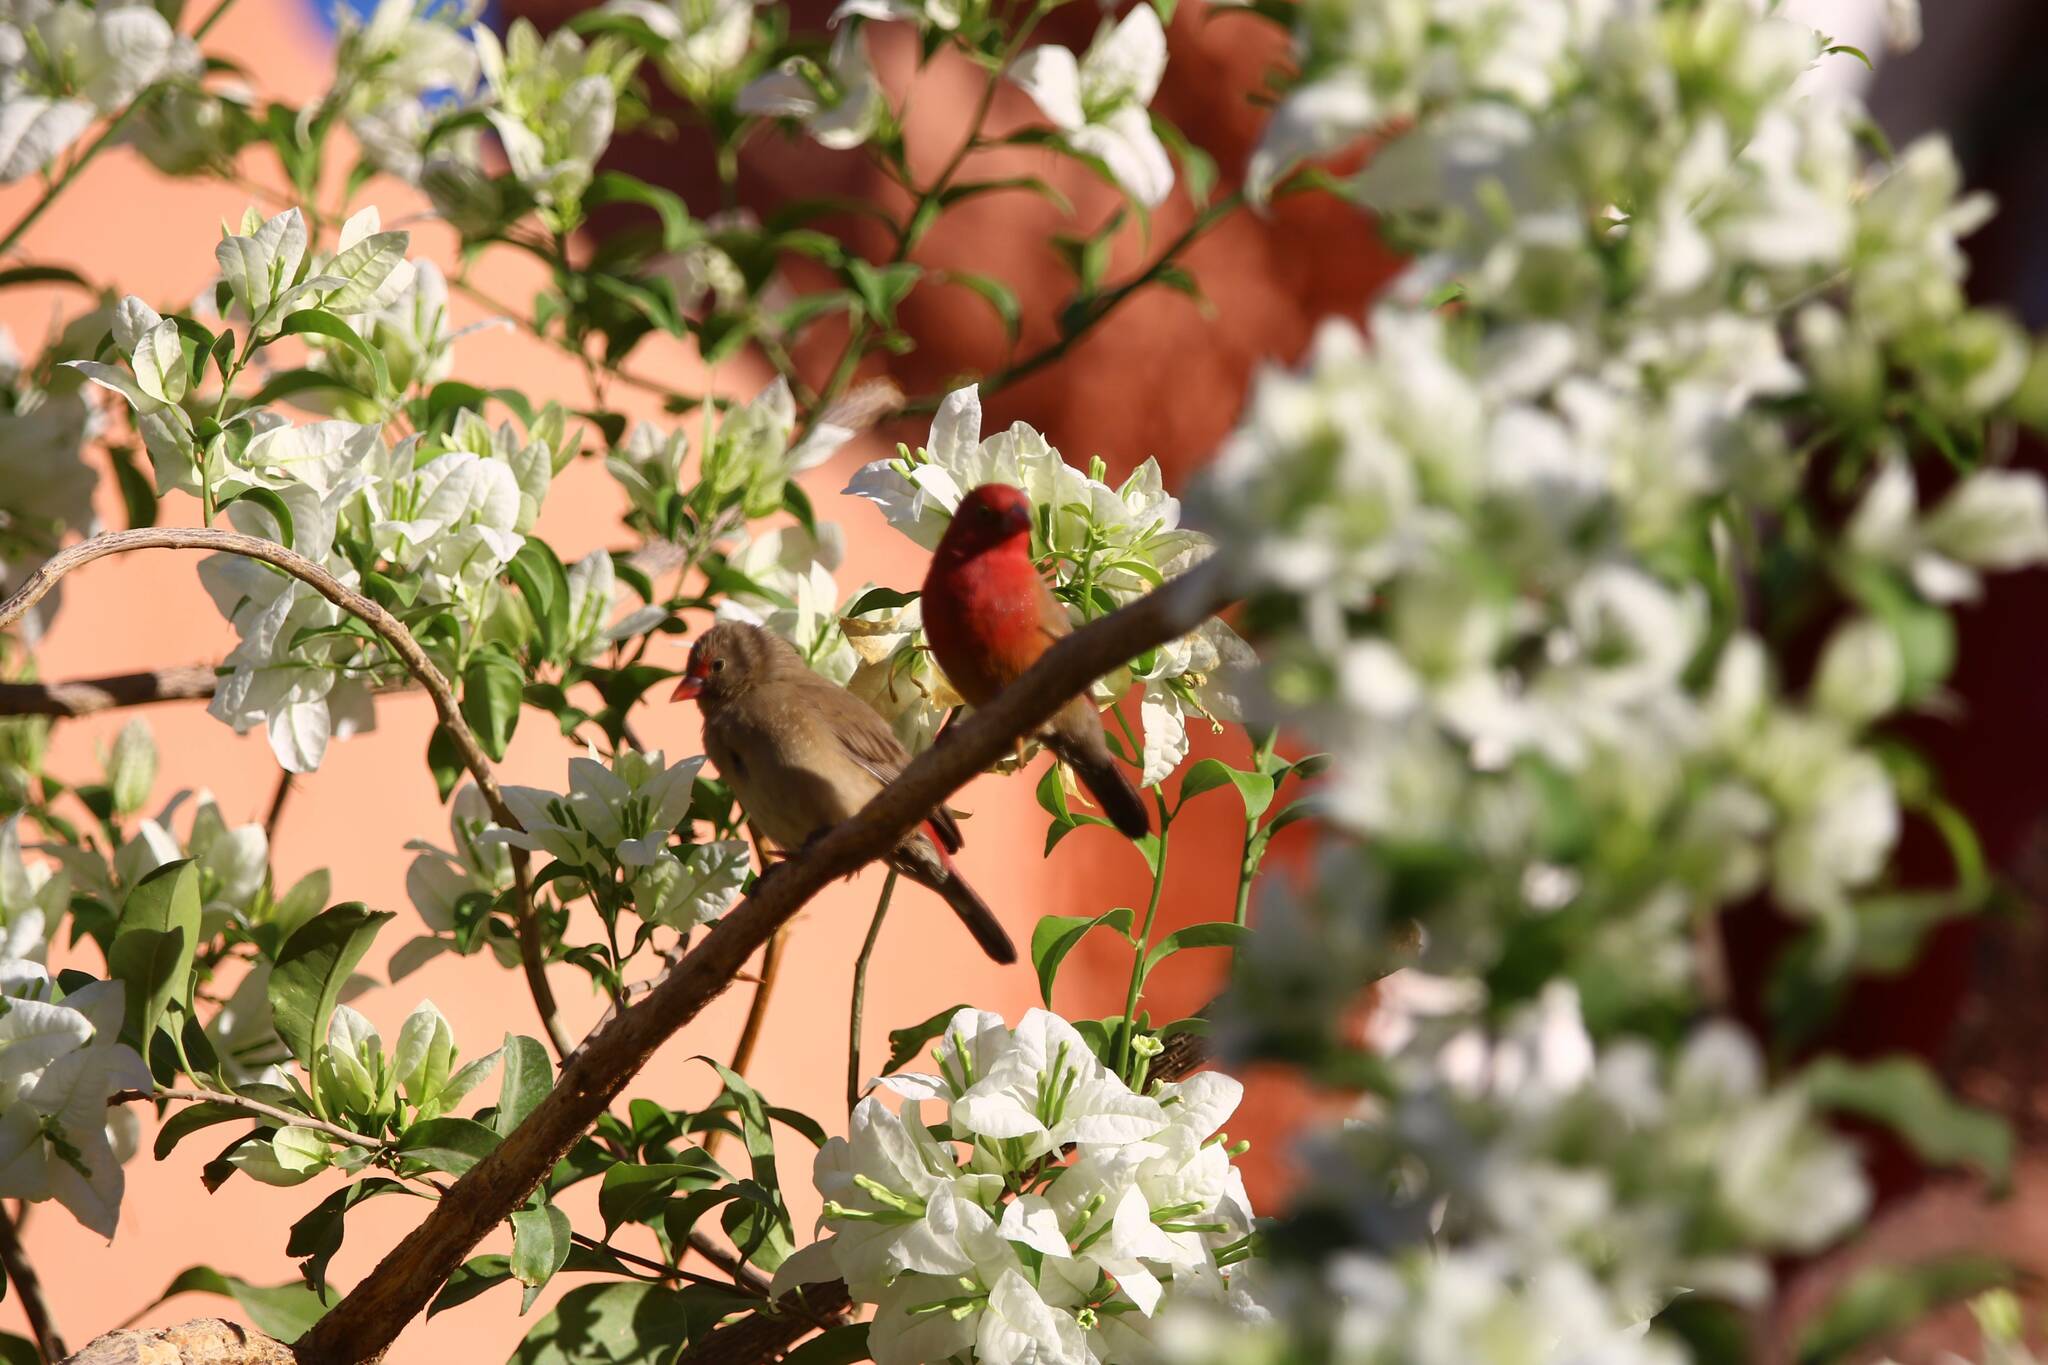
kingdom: Animalia
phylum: Chordata
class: Aves
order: Passeriformes
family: Estrildidae
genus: Lagonosticta
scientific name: Lagonosticta senegala
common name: Red-billed firefinch
